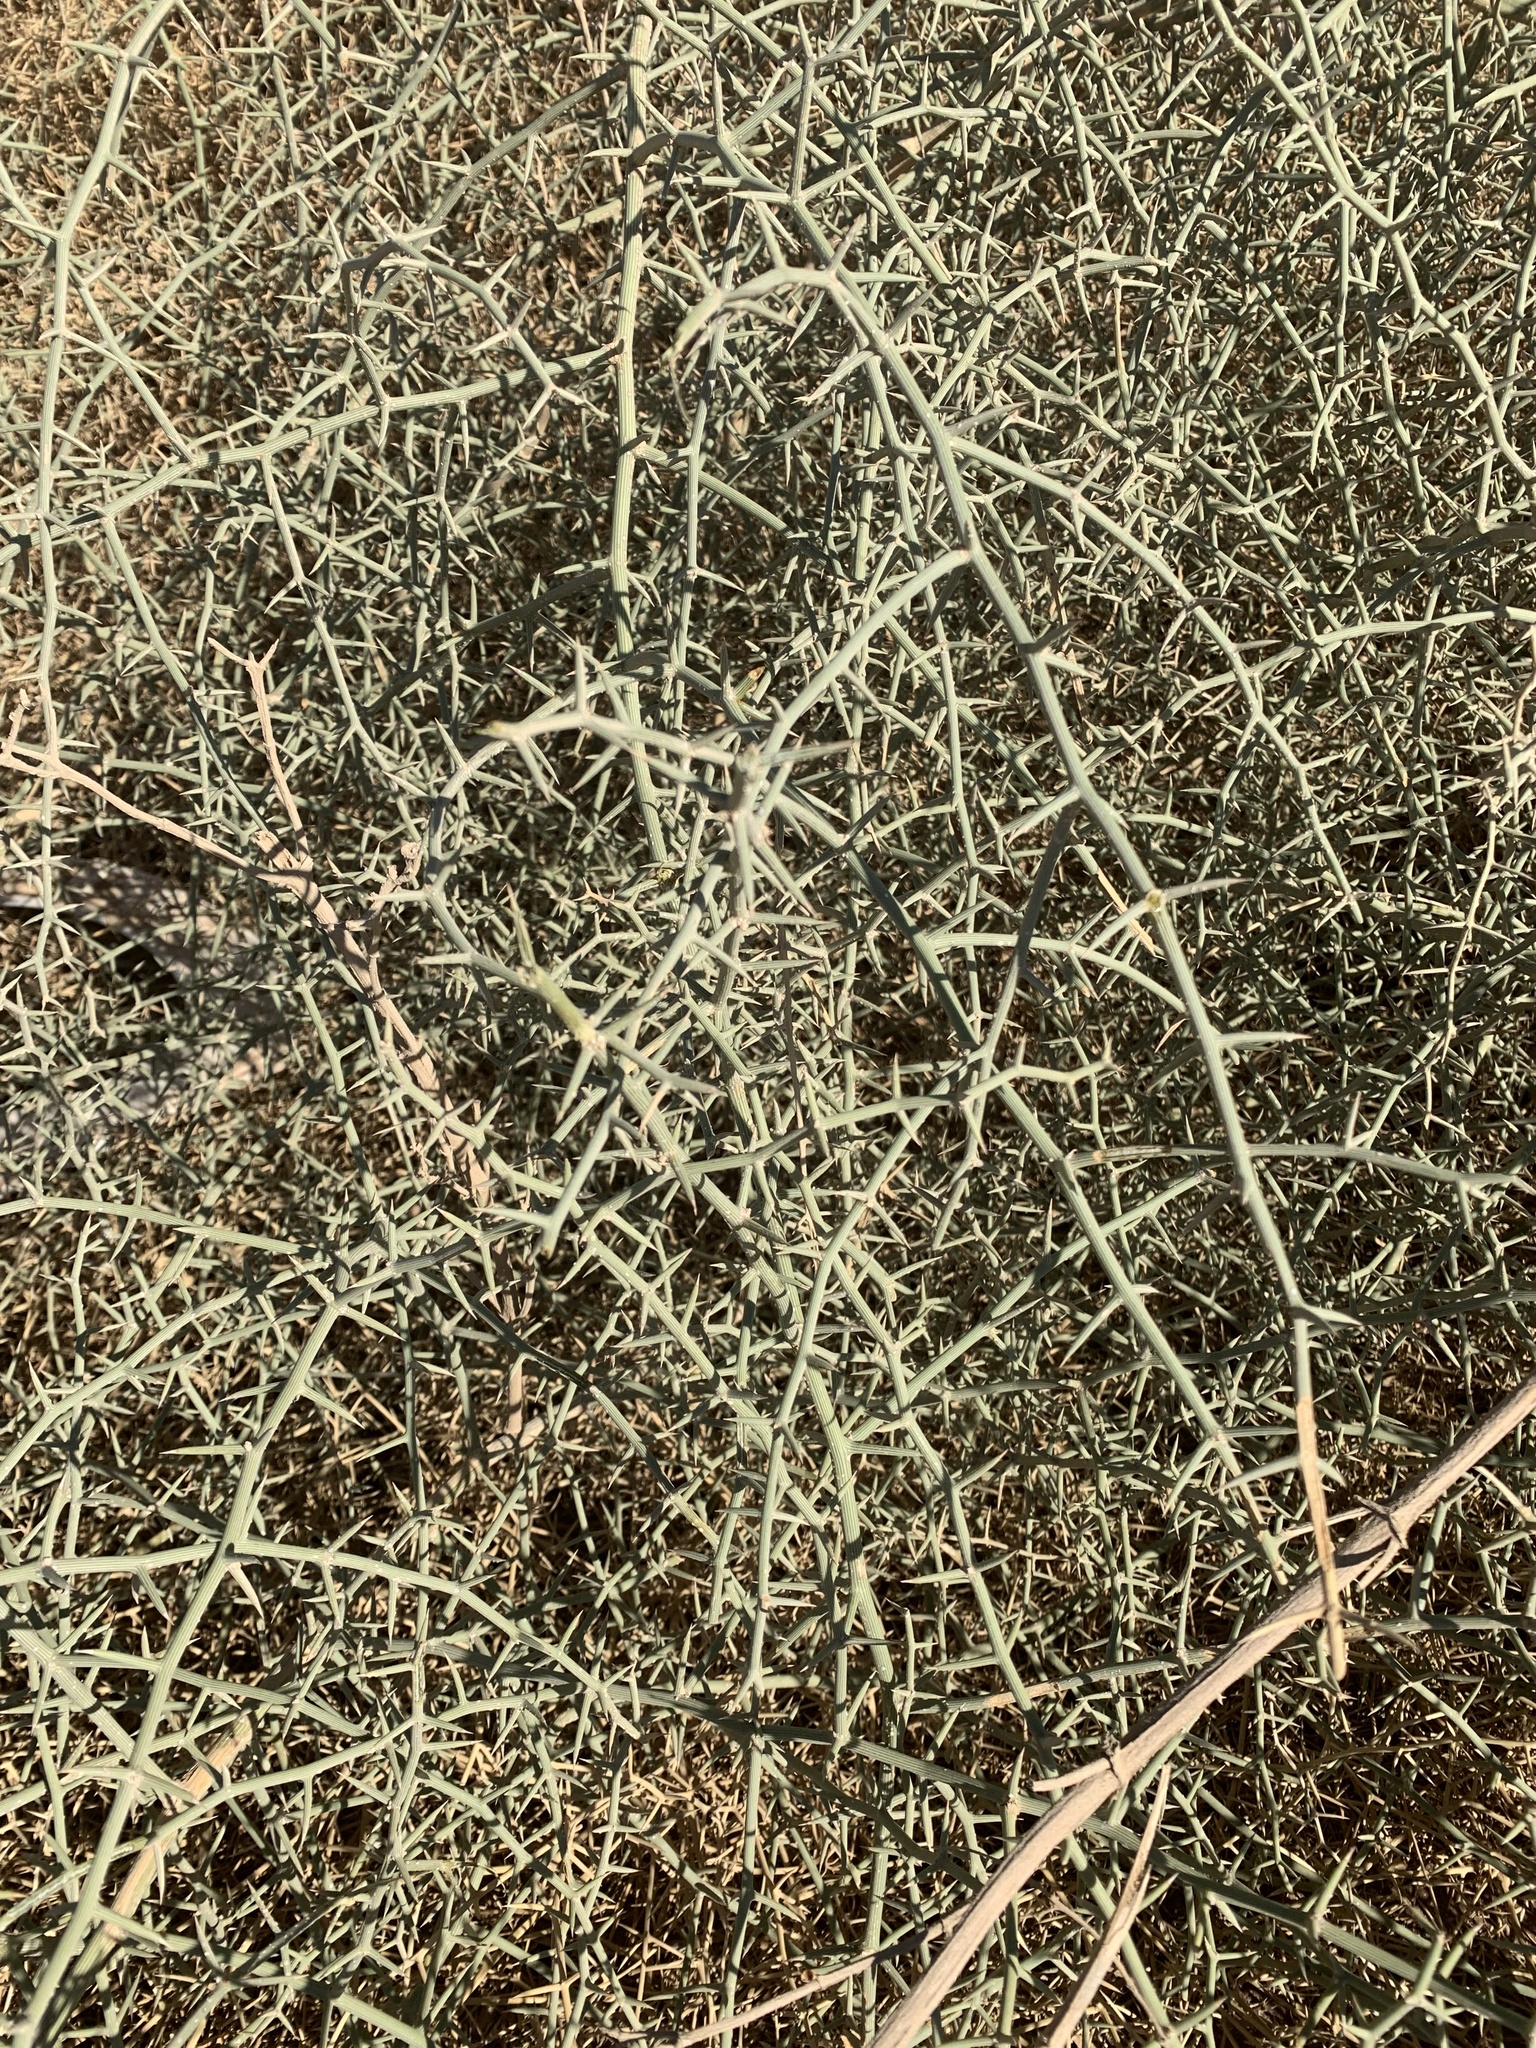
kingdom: Plantae
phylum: Tracheophyta
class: Magnoliopsida
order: Cucurbitales
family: Cucurbitaceae
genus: Acanthosicyos
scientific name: Acanthosicyos horridus
